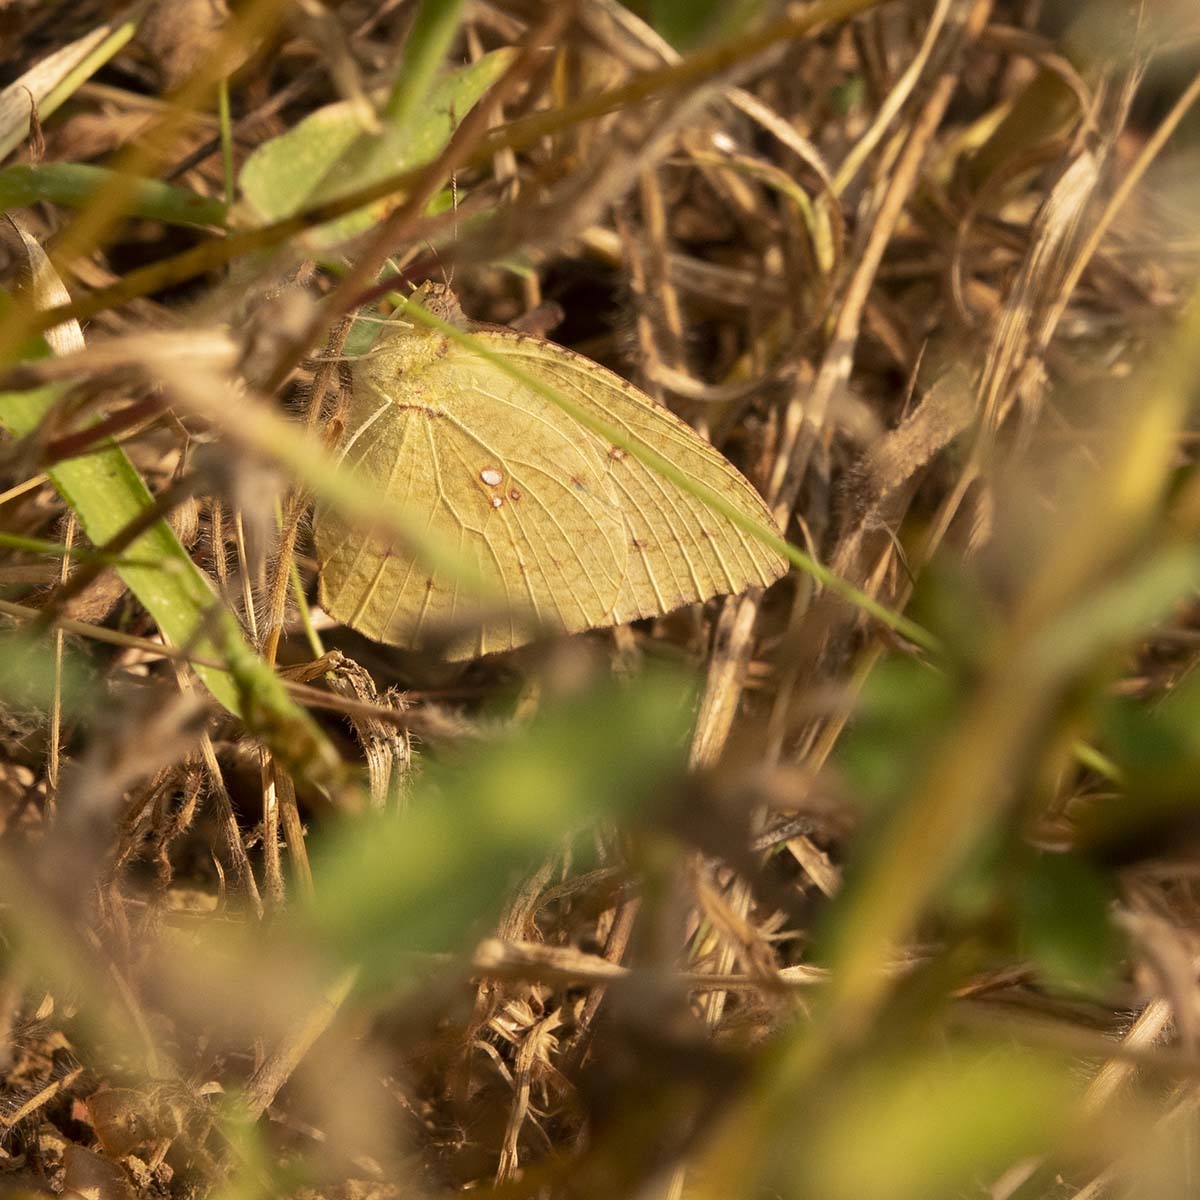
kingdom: Animalia
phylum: Arthropoda
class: Insecta
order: Lepidoptera
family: Pieridae
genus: Catopsilia
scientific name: Catopsilia pyranthe
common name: Mottled emigrant
